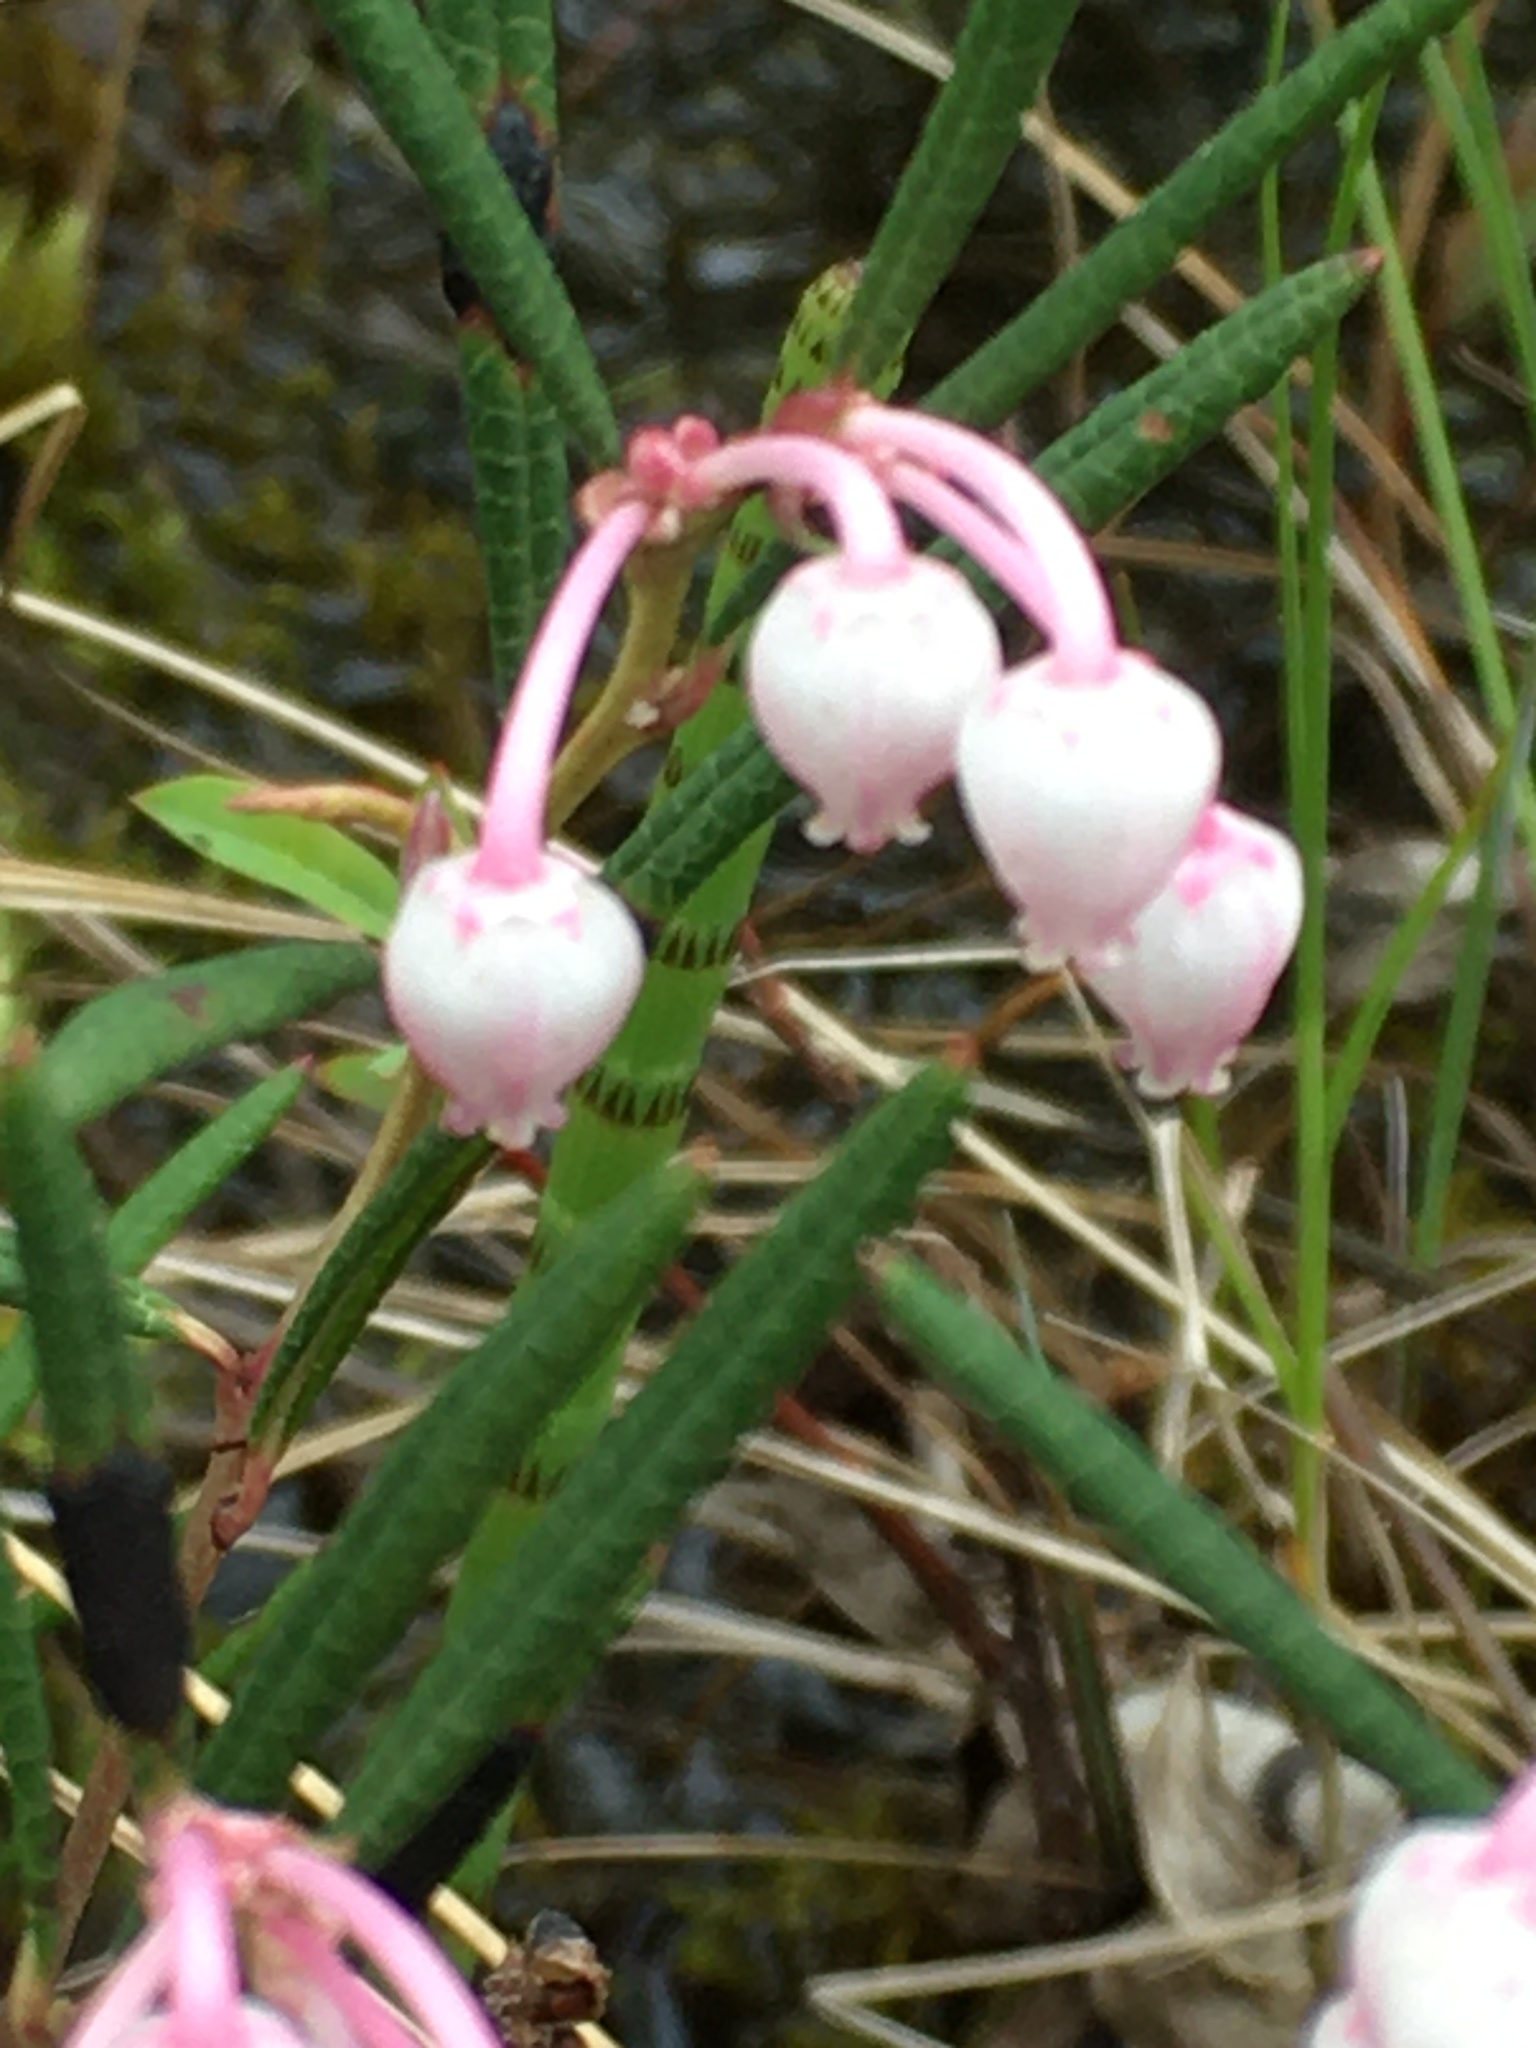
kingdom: Plantae
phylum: Tracheophyta
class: Magnoliopsida
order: Ericales
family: Ericaceae
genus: Andromeda
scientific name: Andromeda polifolia
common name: Bog-rosemary
